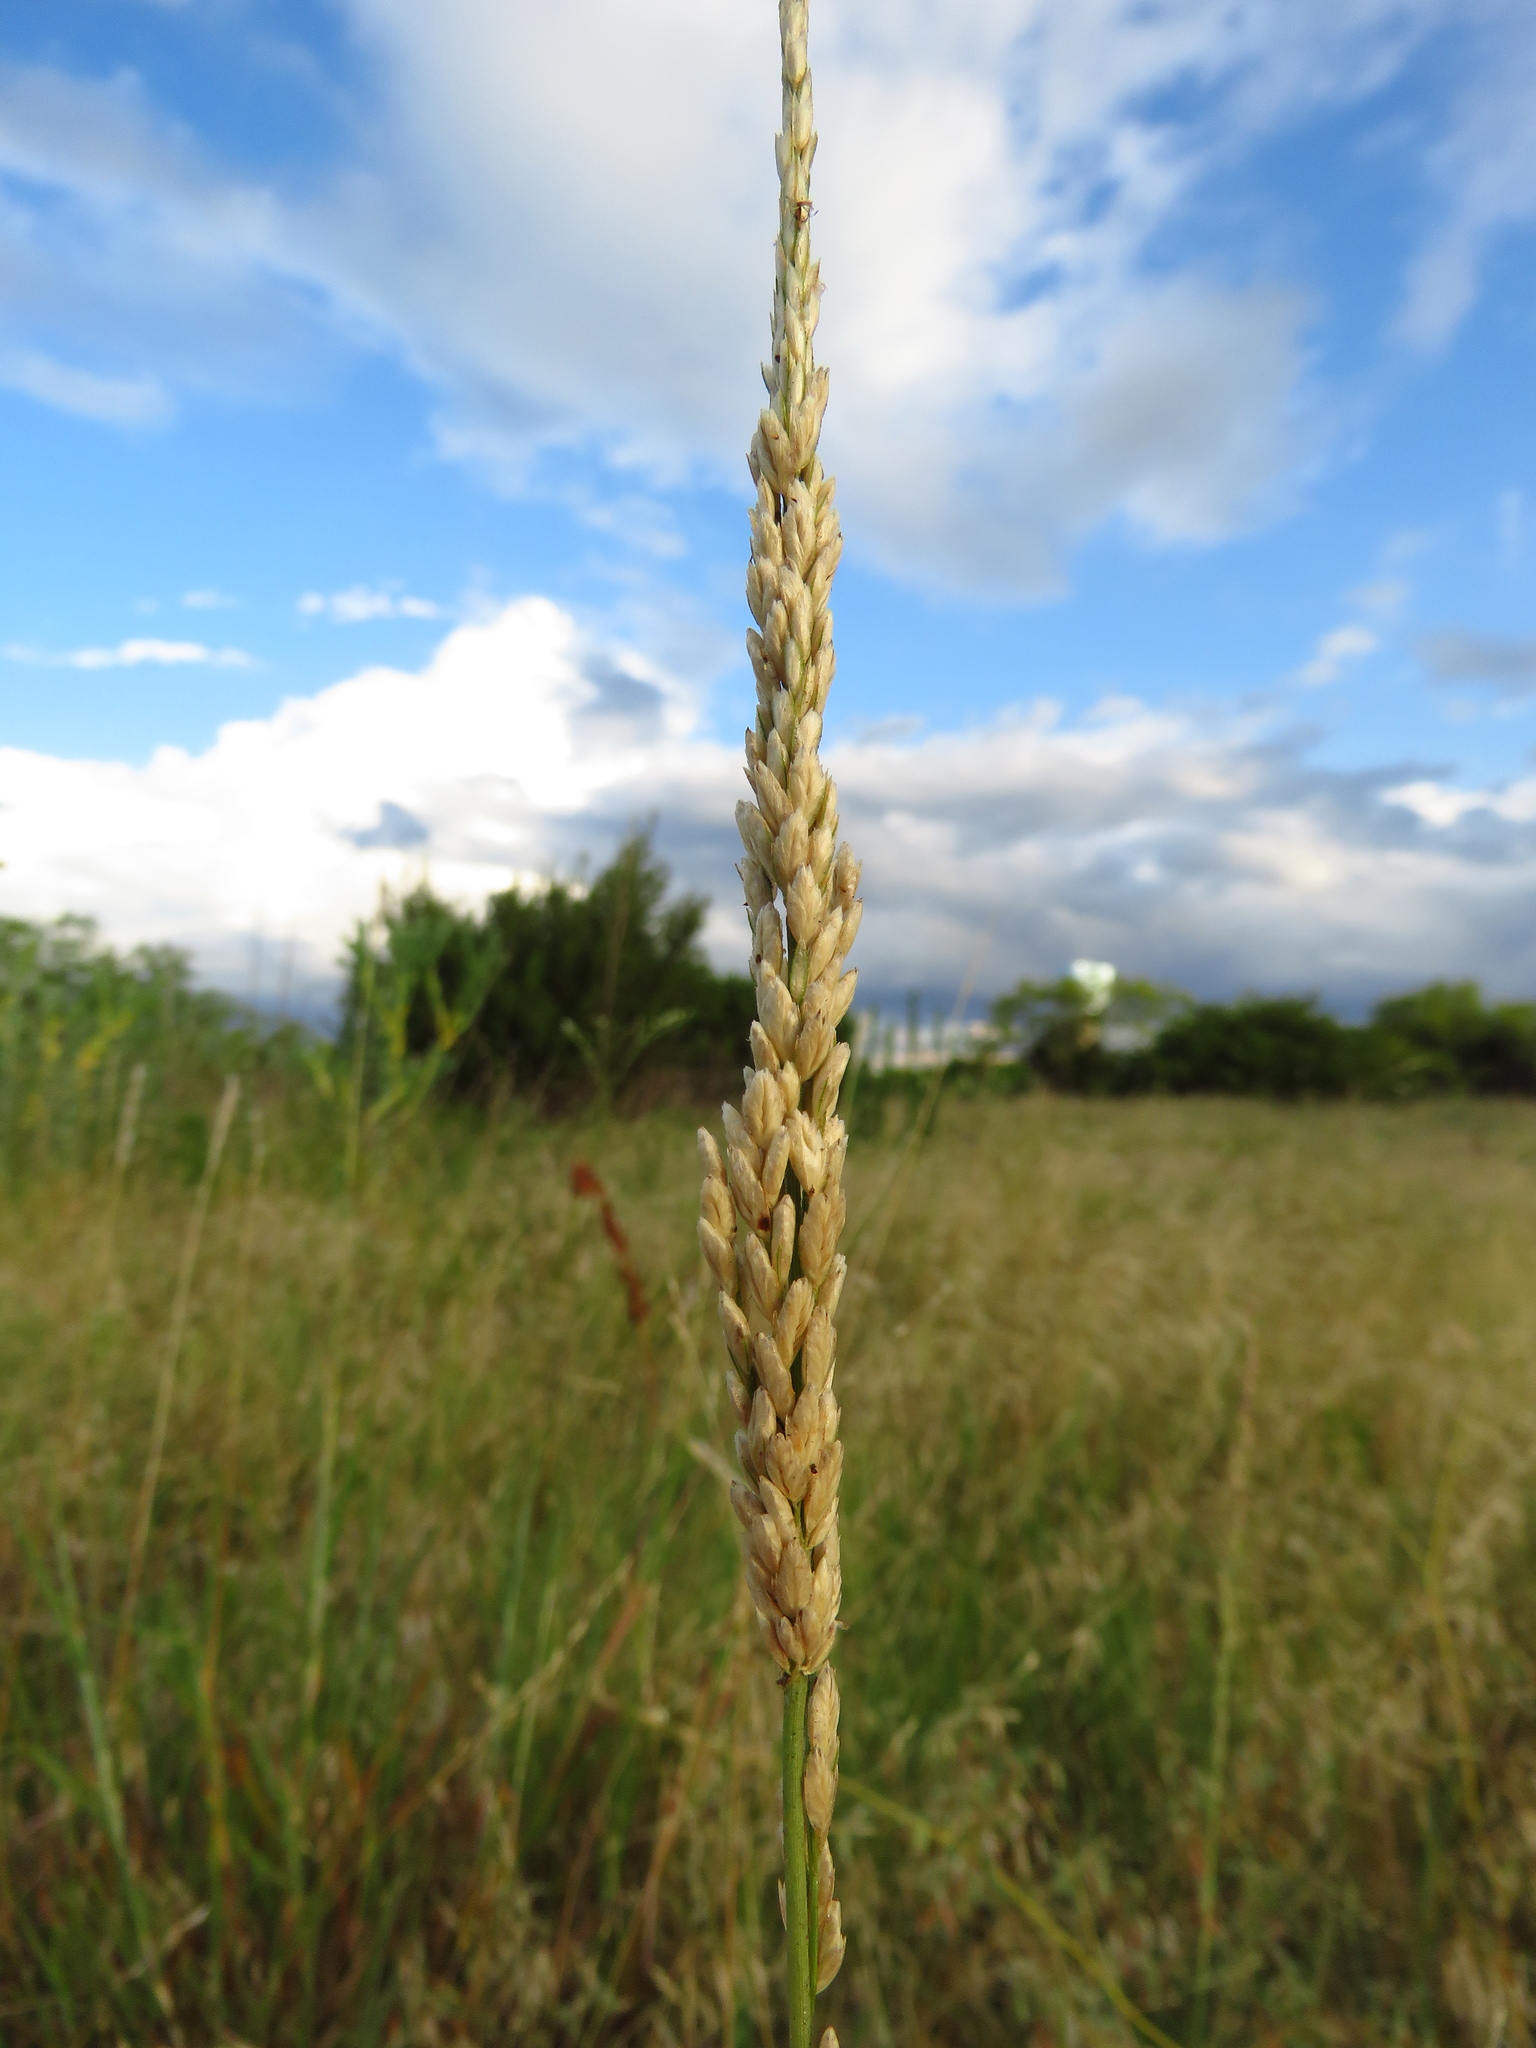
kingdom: Plantae
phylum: Tracheophyta
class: Liliopsida
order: Poales
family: Poaceae
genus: Tridens
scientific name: Tridens albescens
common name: White tridens
